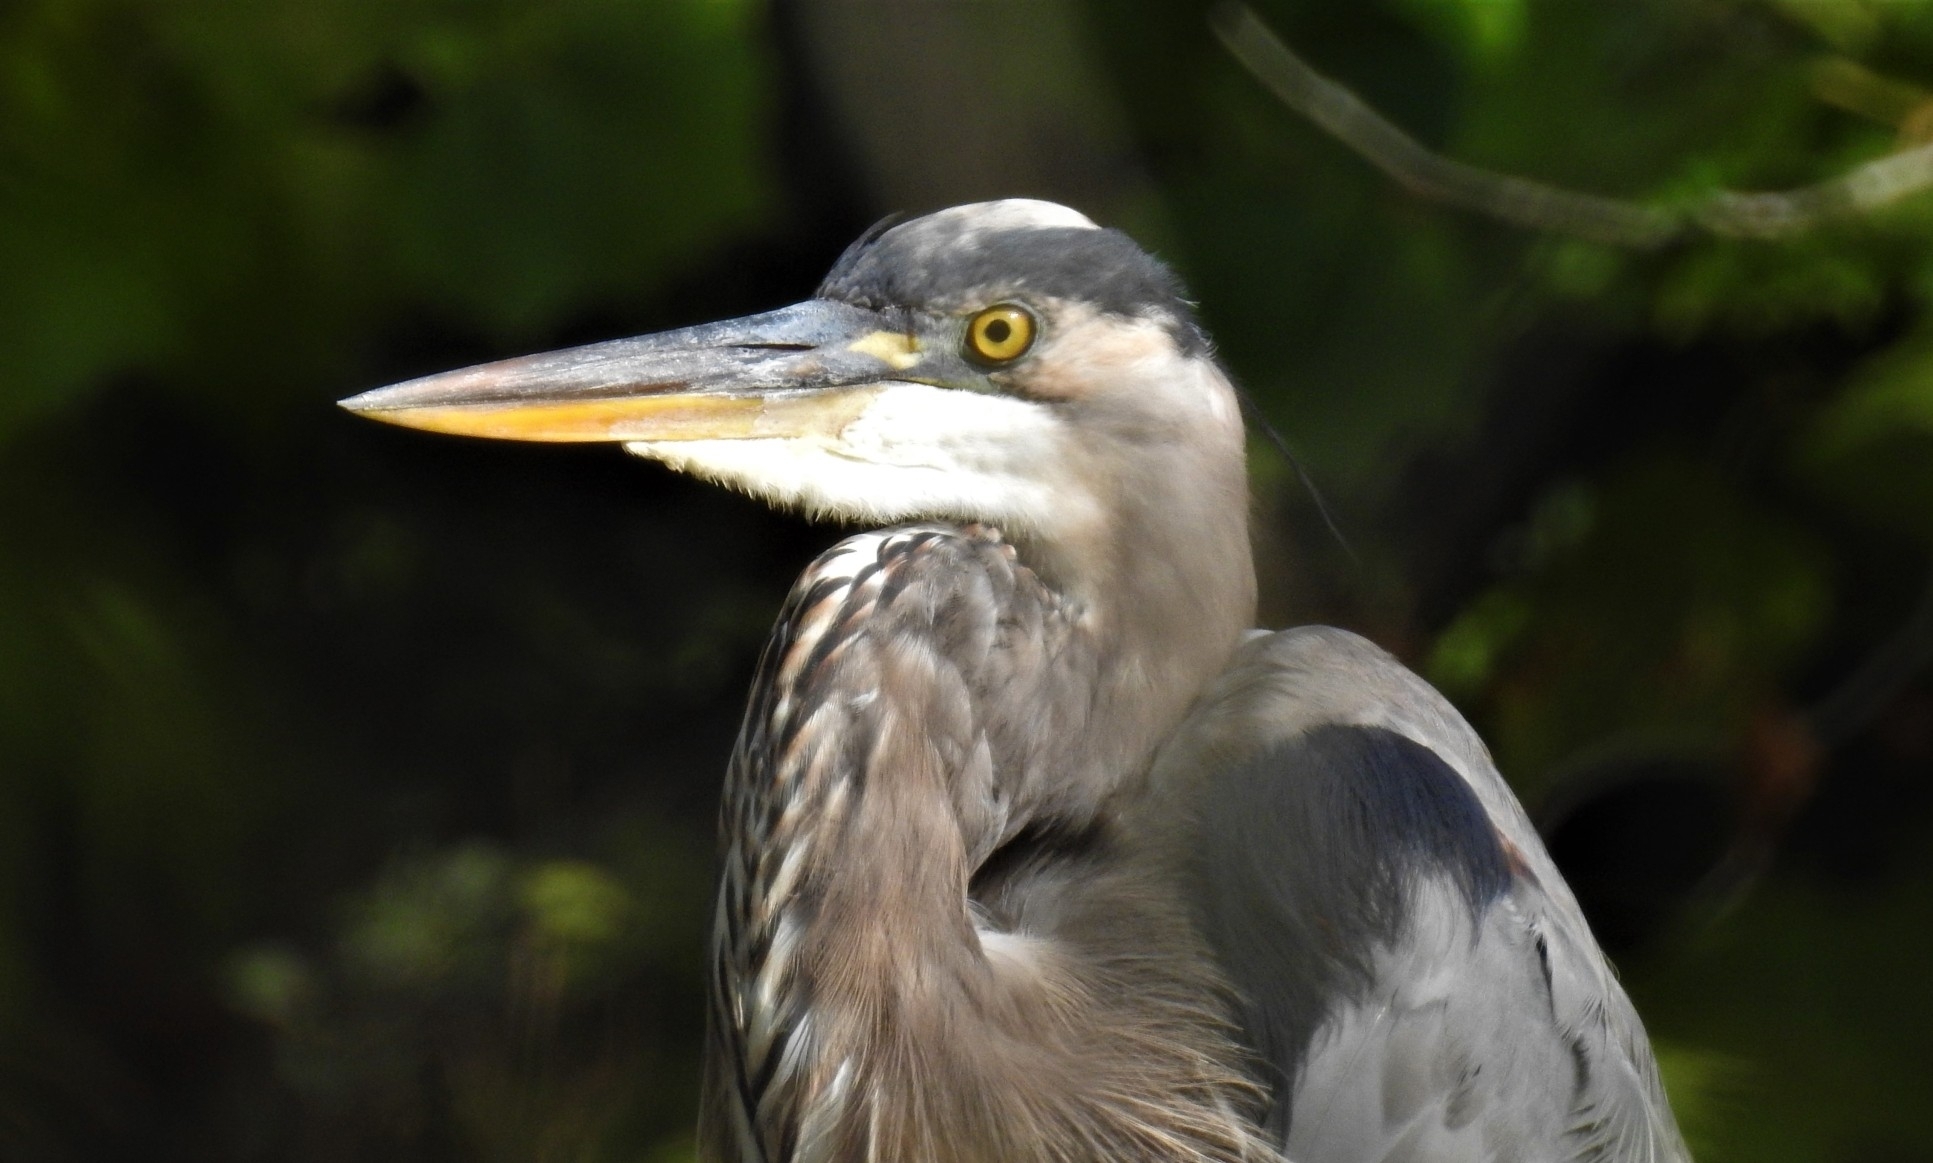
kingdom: Animalia
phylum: Chordata
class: Aves
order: Pelecaniformes
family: Ardeidae
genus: Ardea
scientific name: Ardea herodias
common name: Great blue heron
